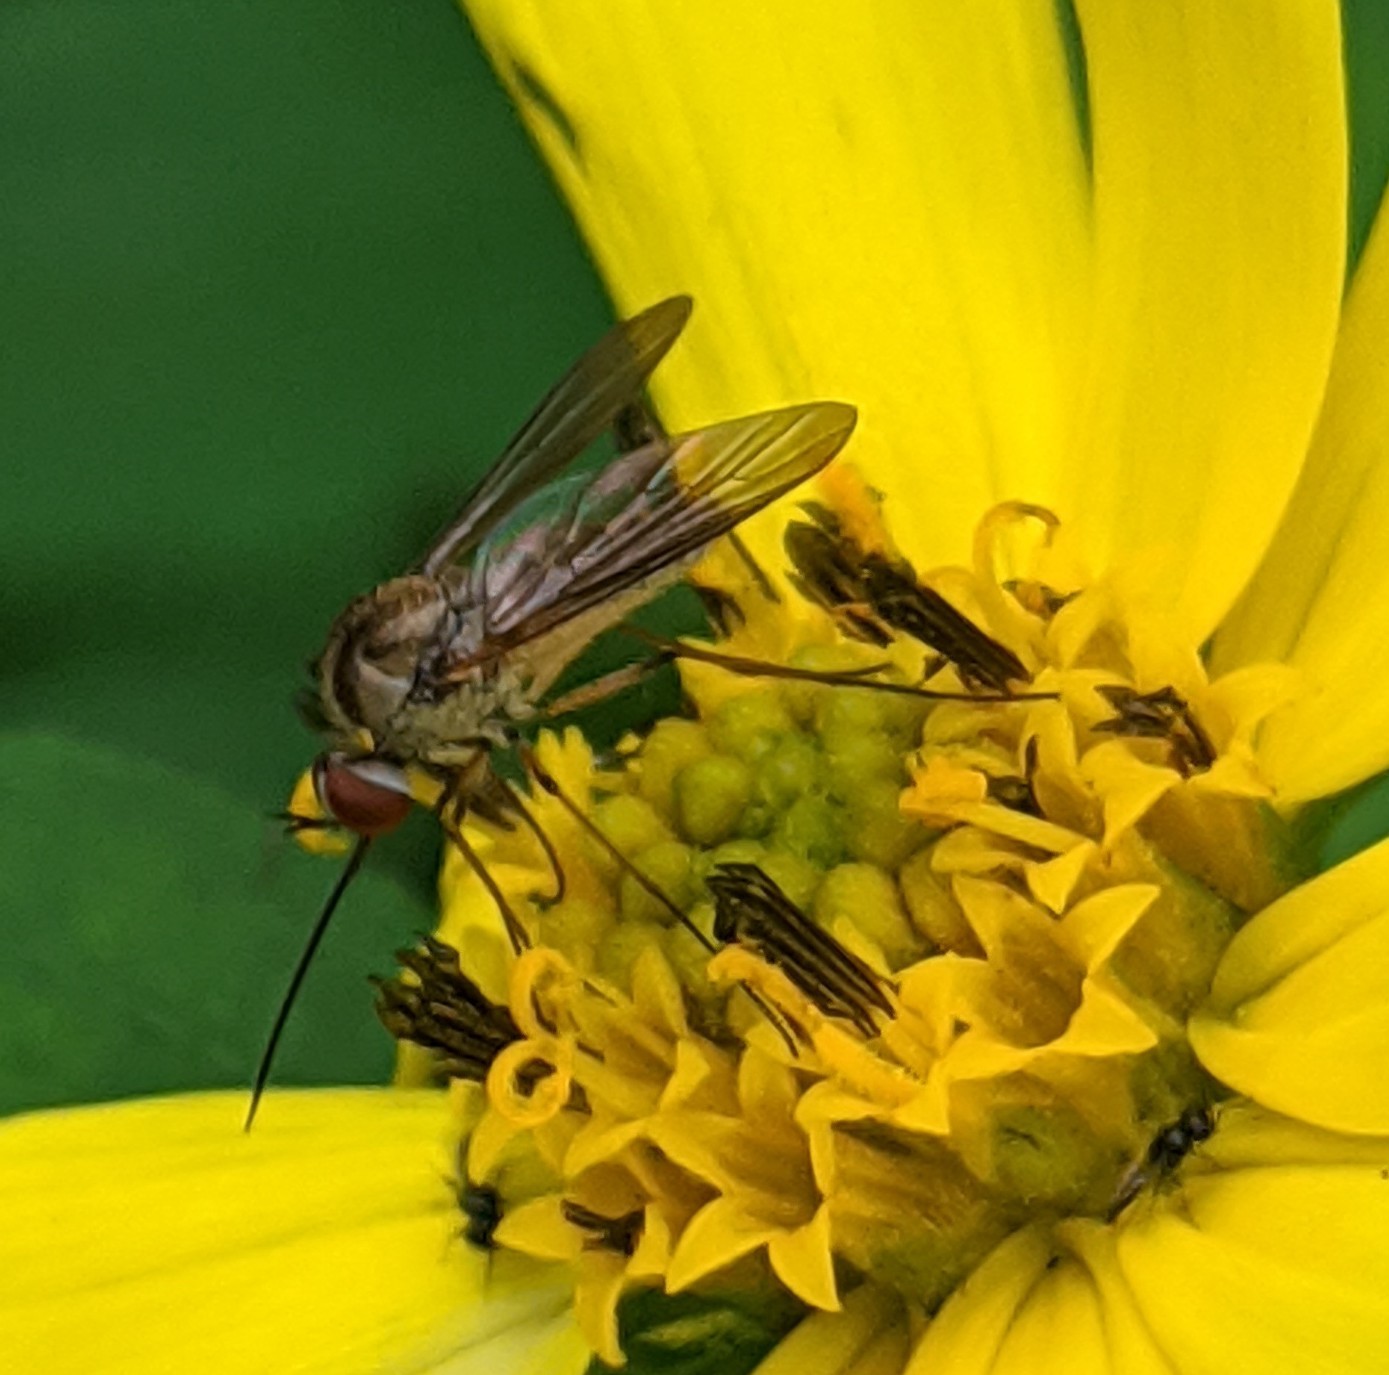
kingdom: Animalia
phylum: Arthropoda
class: Insecta
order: Diptera
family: Bombyliidae
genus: Geron
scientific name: Geron calvus
